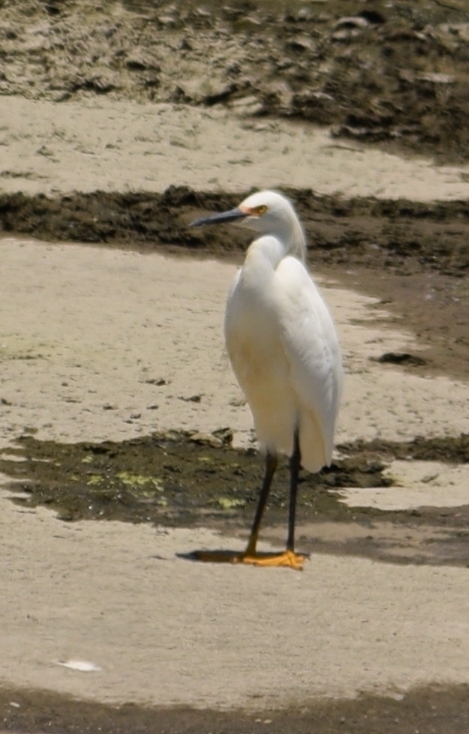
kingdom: Animalia
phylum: Chordata
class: Aves
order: Pelecaniformes
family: Ardeidae
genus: Egretta
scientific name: Egretta thula
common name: Snowy egret
